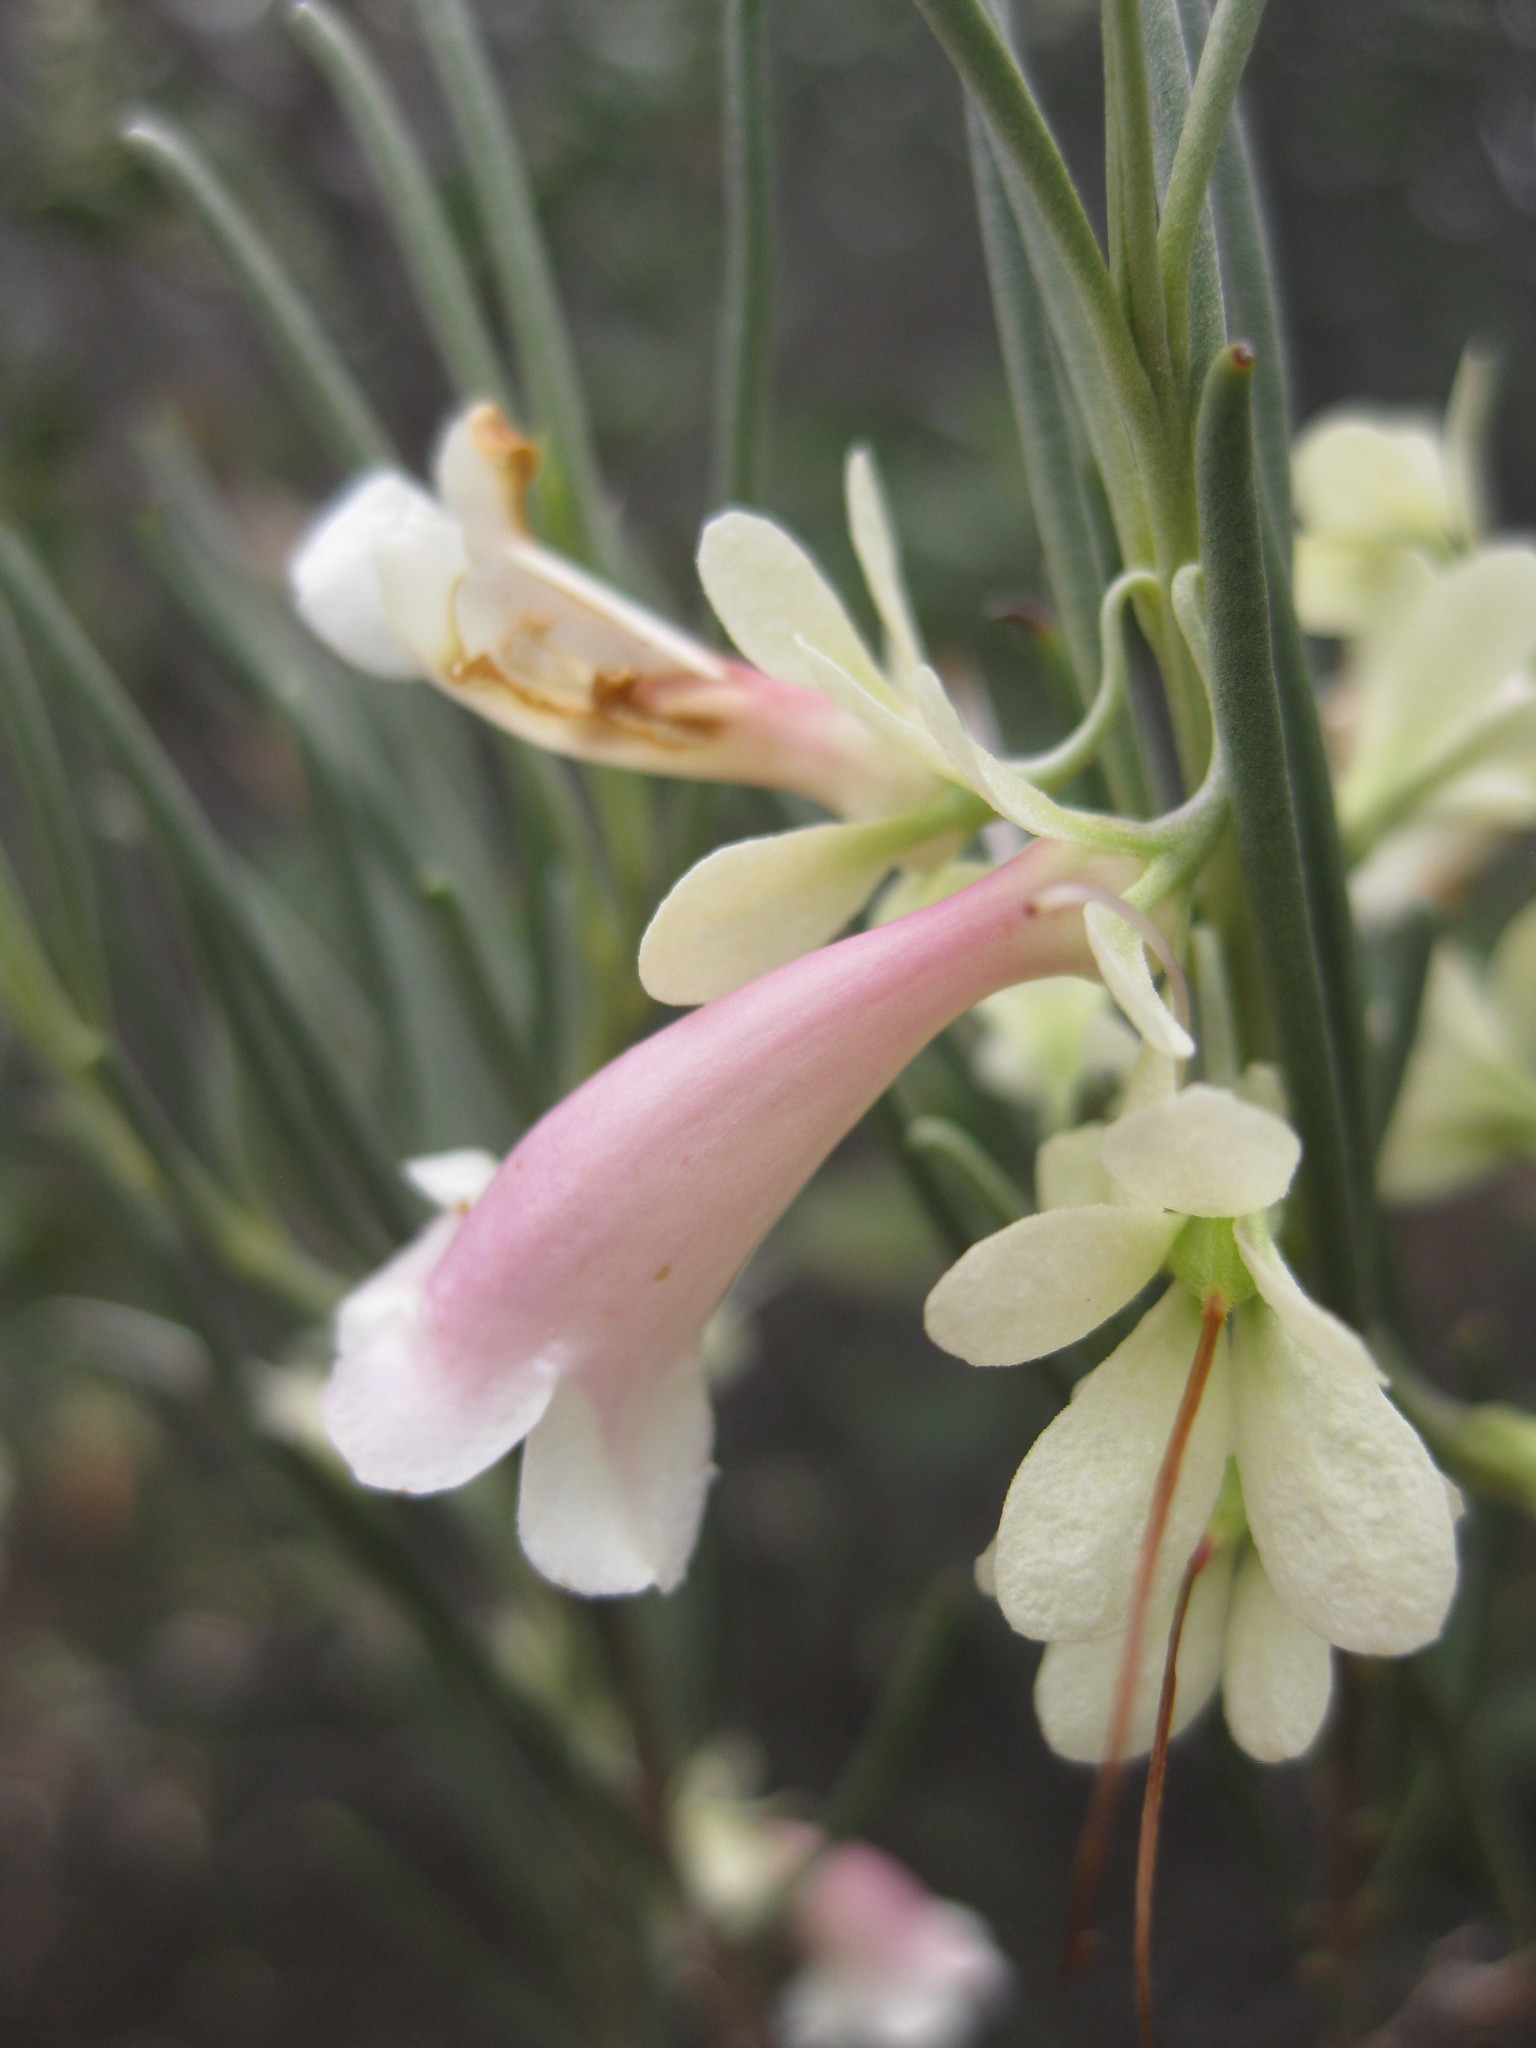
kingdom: Plantae
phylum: Tracheophyta
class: Magnoliopsida
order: Lamiales
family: Scrophulariaceae
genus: Eremophila
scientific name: Eremophila oppositifolia
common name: Mountain-sandalwood
